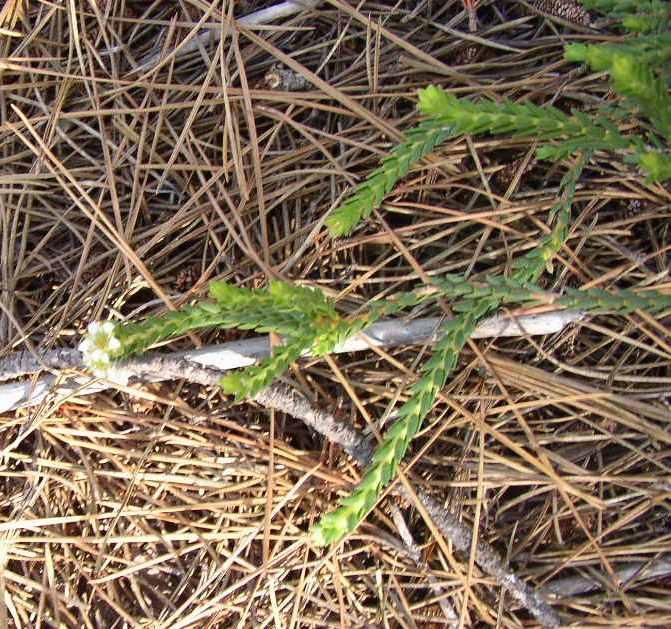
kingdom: Plantae
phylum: Tracheophyta
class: Magnoliopsida
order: Sapindales
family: Rutaceae
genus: Diosma
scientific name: Diosma oppositifolia
